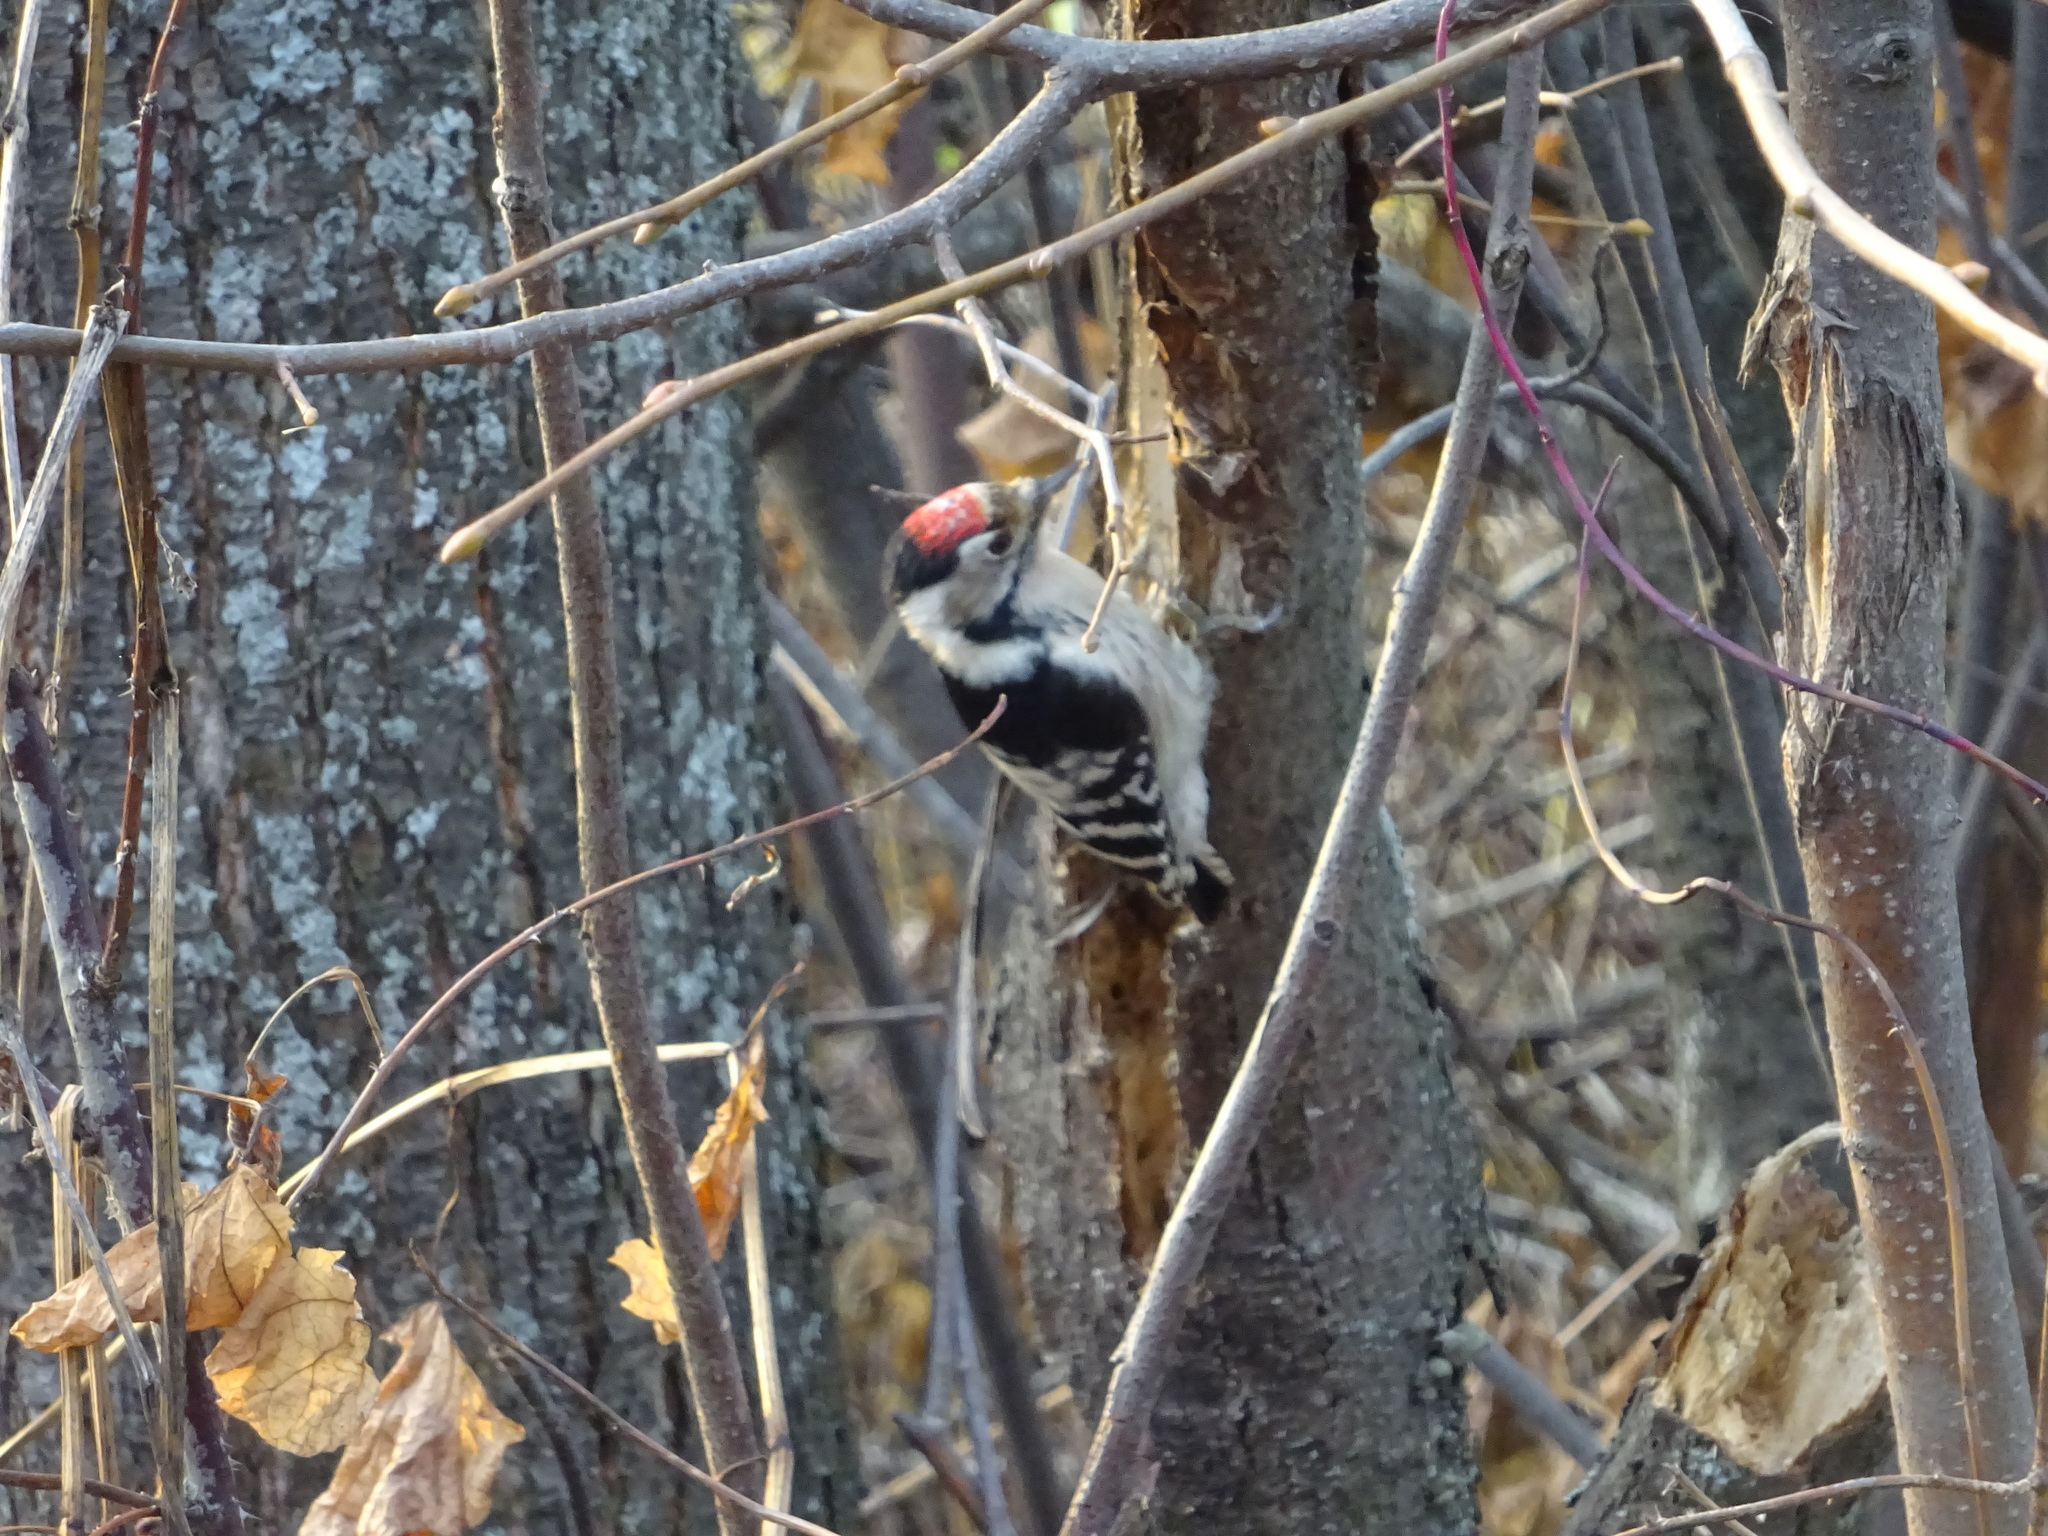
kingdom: Animalia
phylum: Chordata
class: Aves
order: Piciformes
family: Picidae
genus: Dryobates
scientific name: Dryobates minor
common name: Lesser spotted woodpecker
